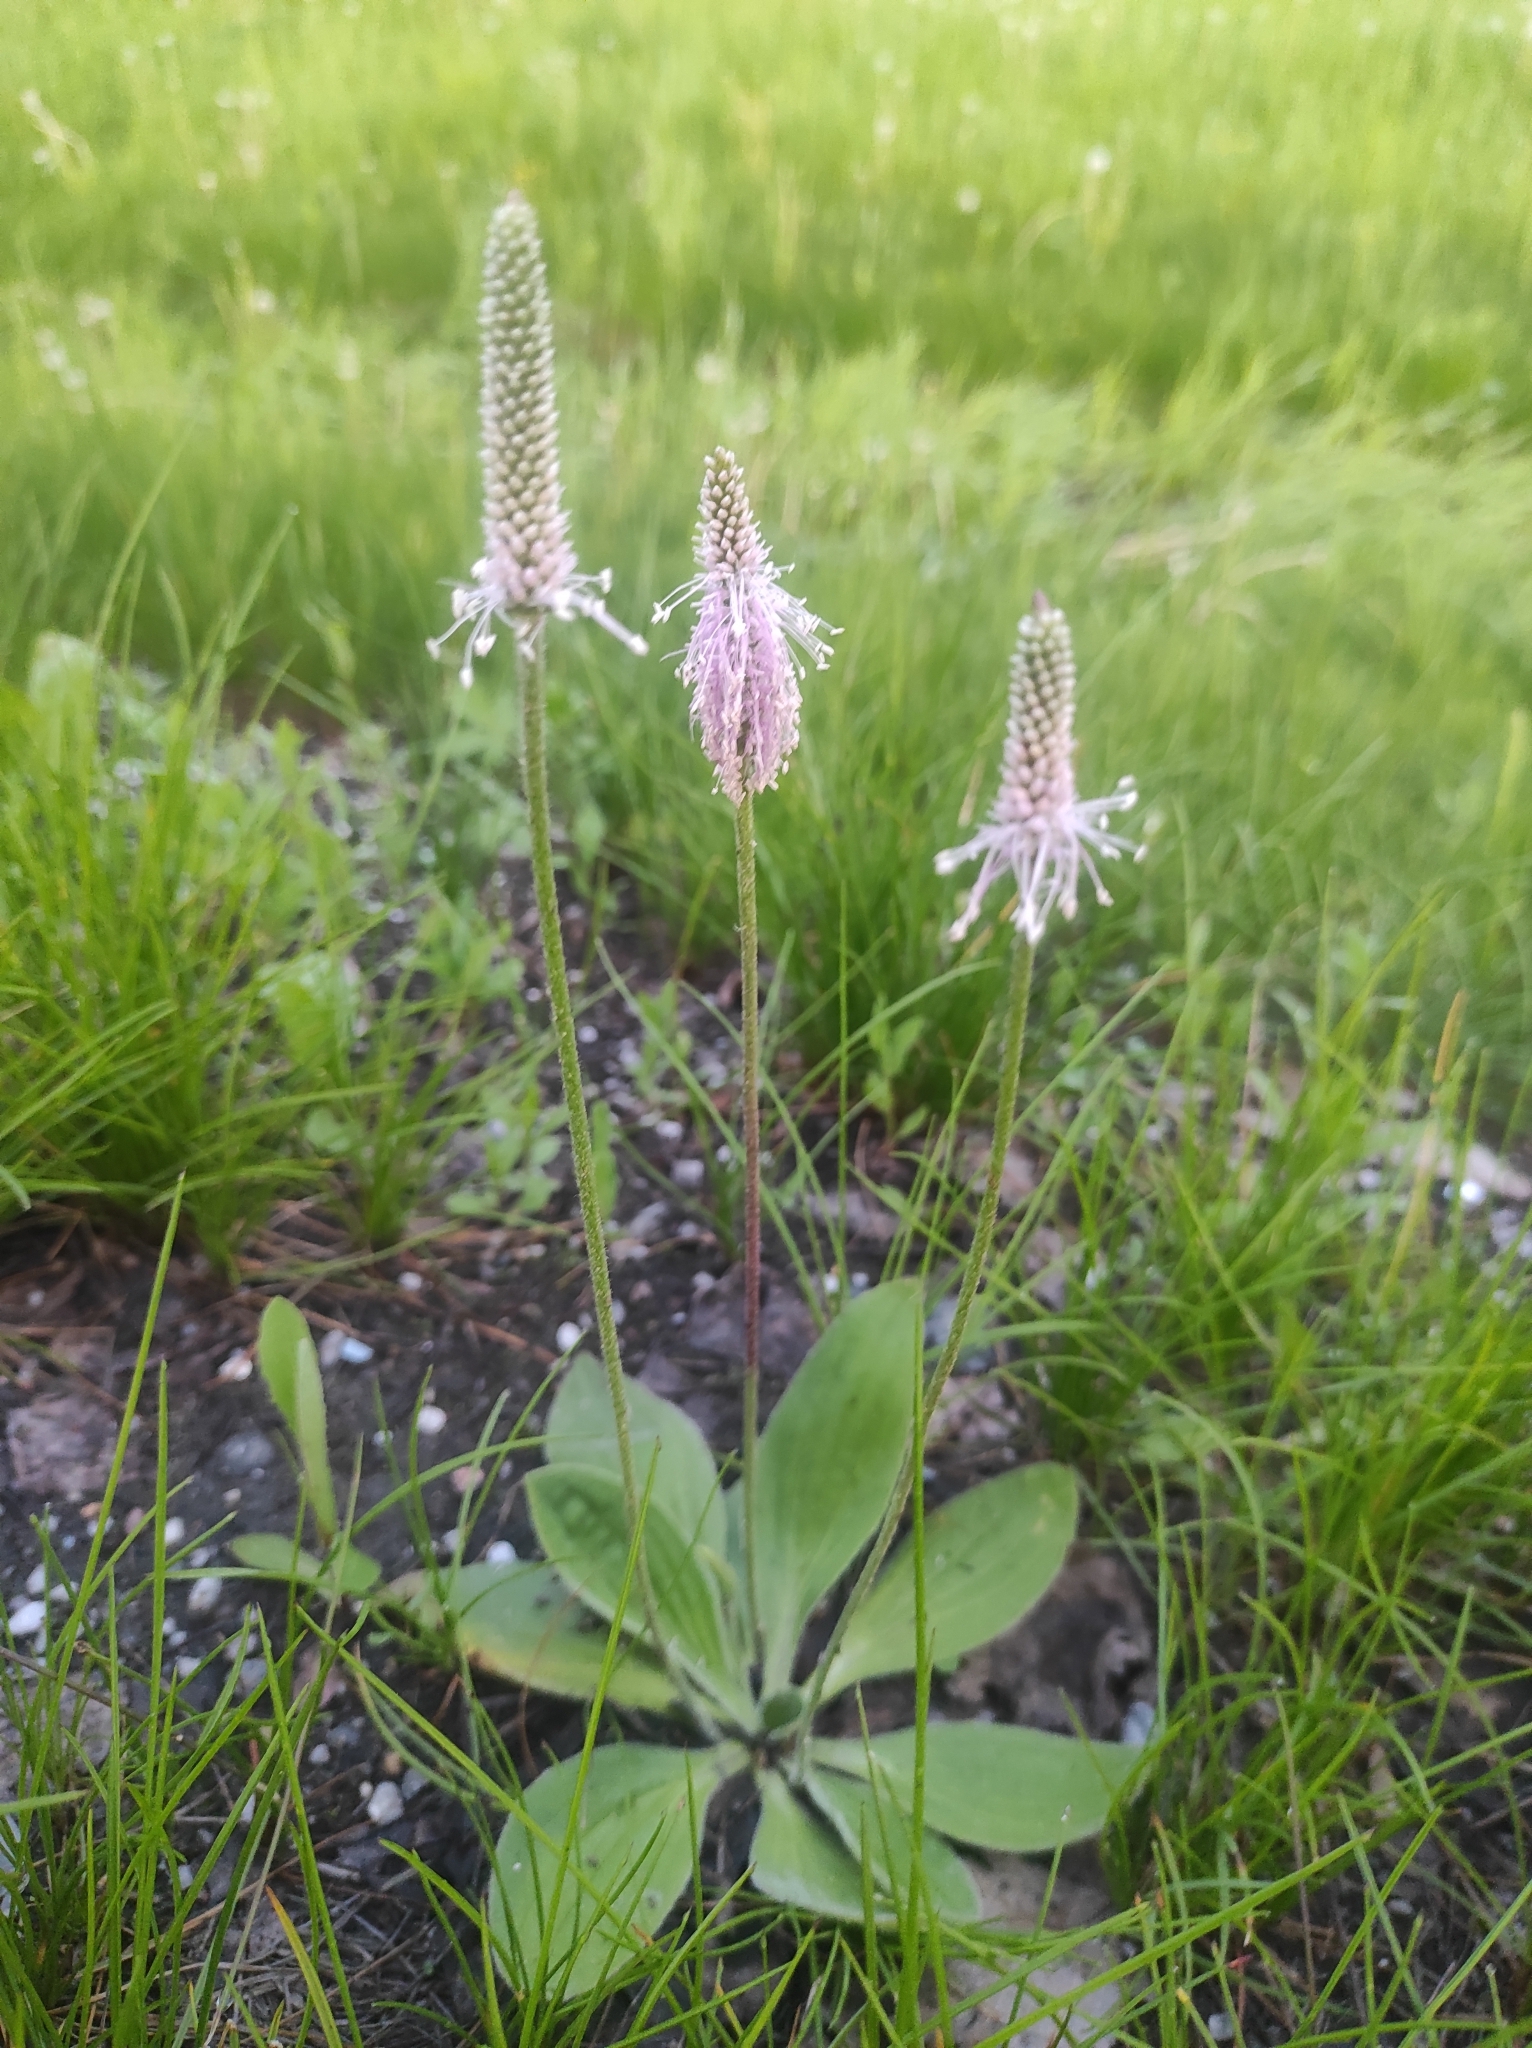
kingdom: Plantae
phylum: Tracheophyta
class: Magnoliopsida
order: Lamiales
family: Plantaginaceae
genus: Plantago
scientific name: Plantago media
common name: Hoary plantain
